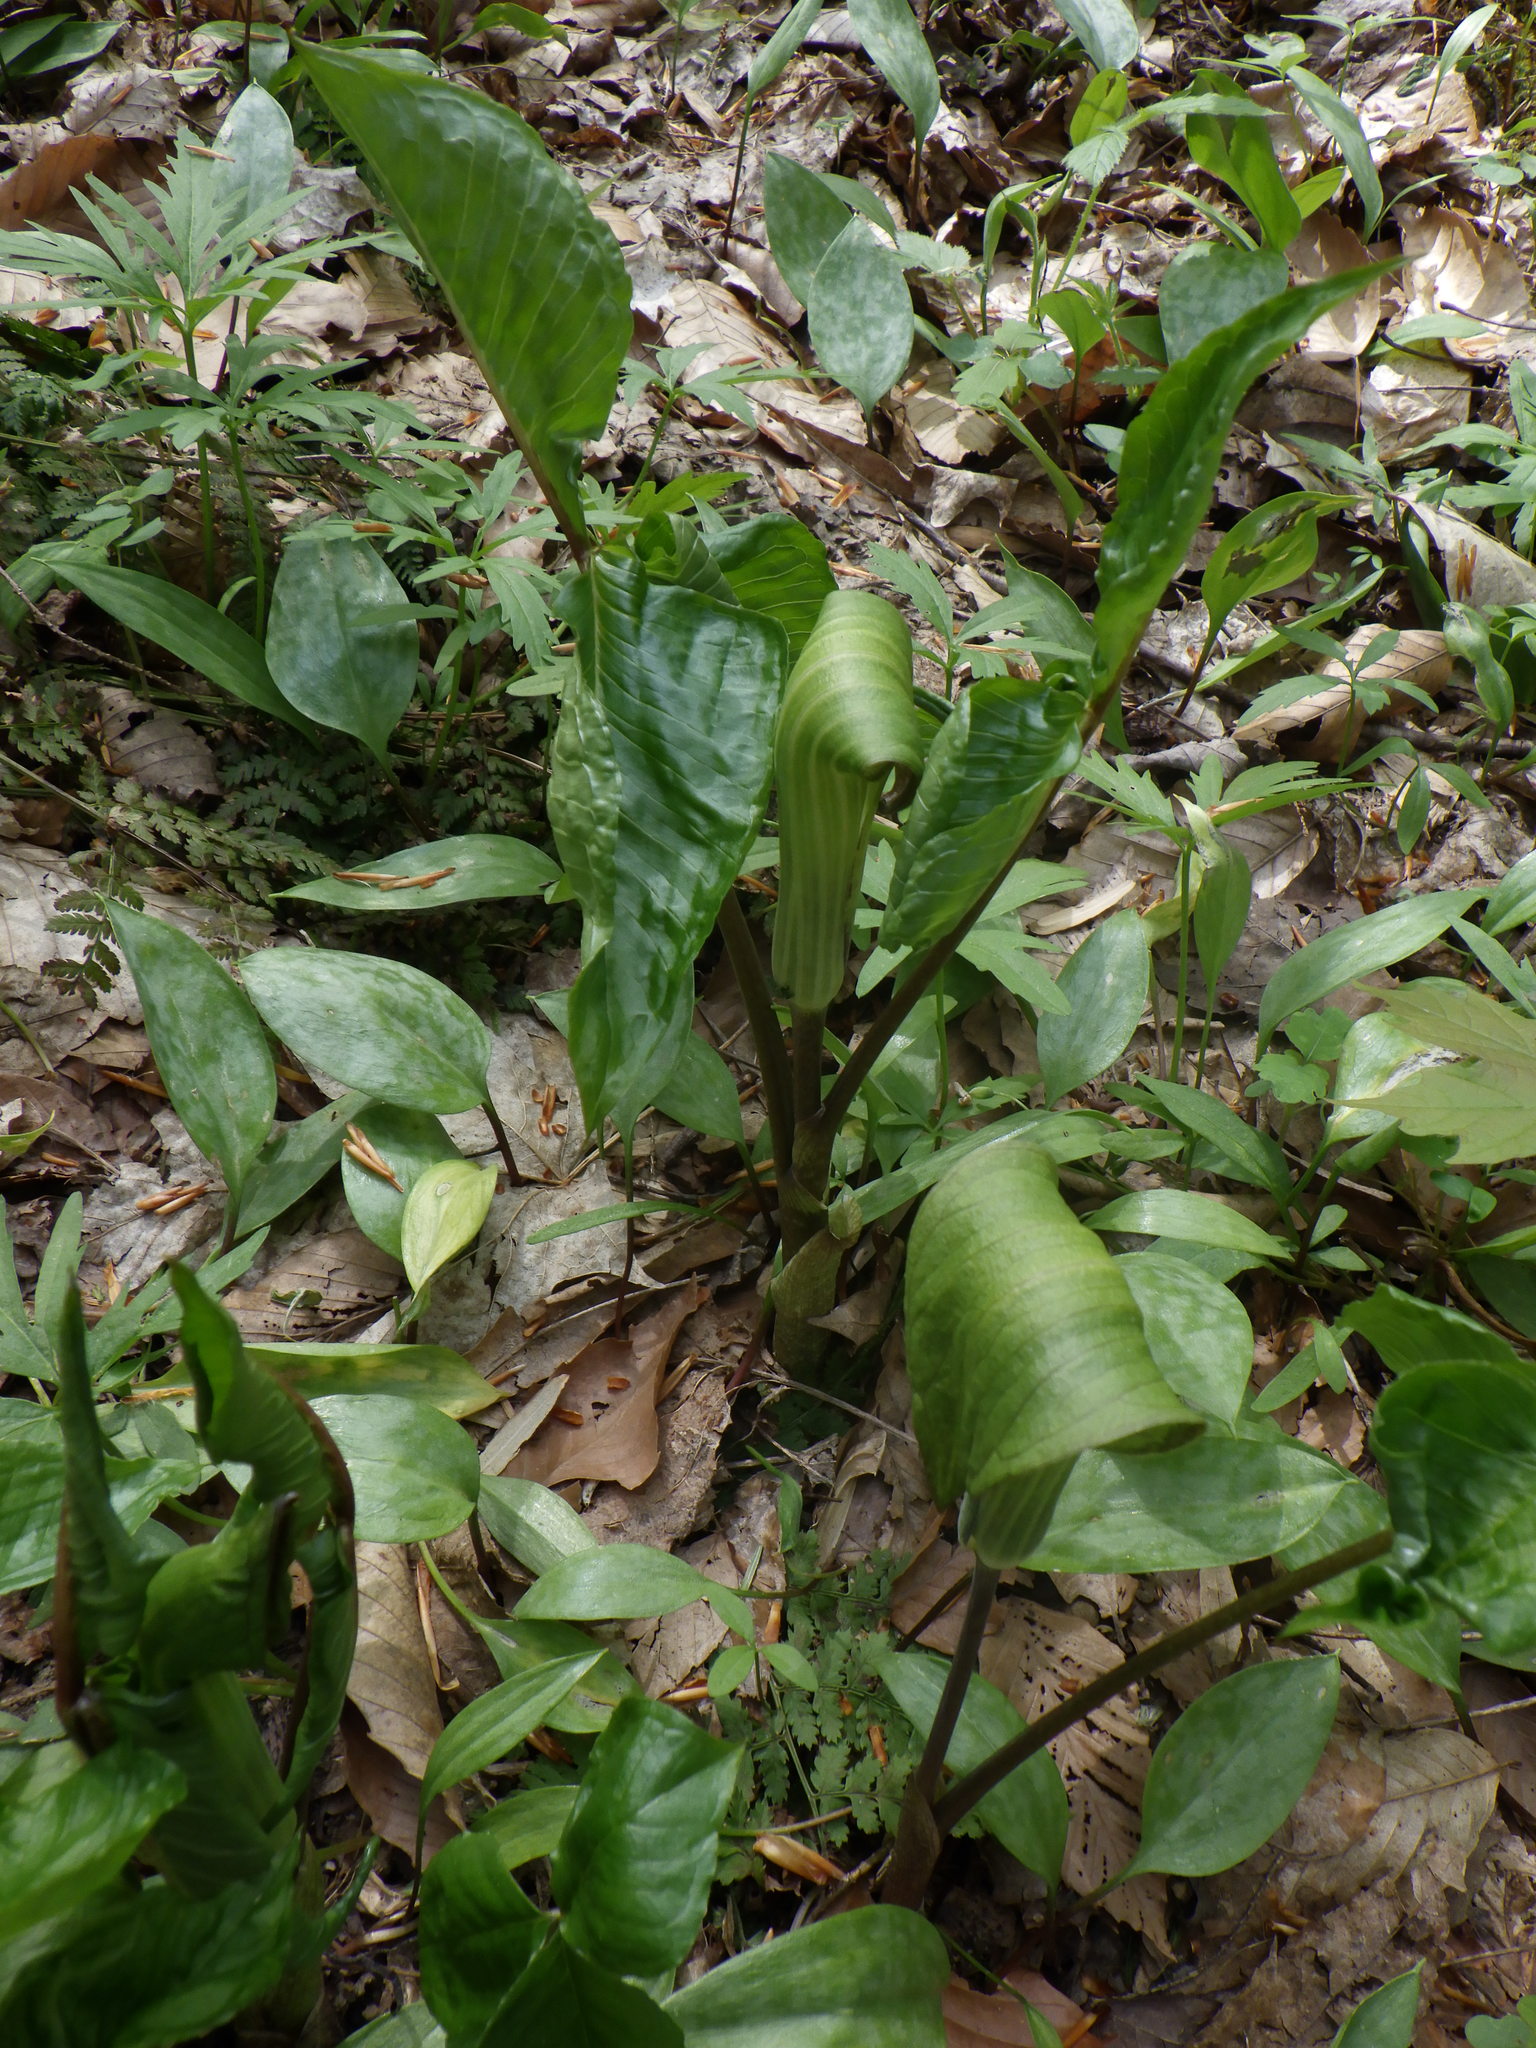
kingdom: Plantae
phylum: Tracheophyta
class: Liliopsida
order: Alismatales
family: Araceae
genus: Arisaema
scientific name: Arisaema triphyllum
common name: Jack-in-the-pulpit
